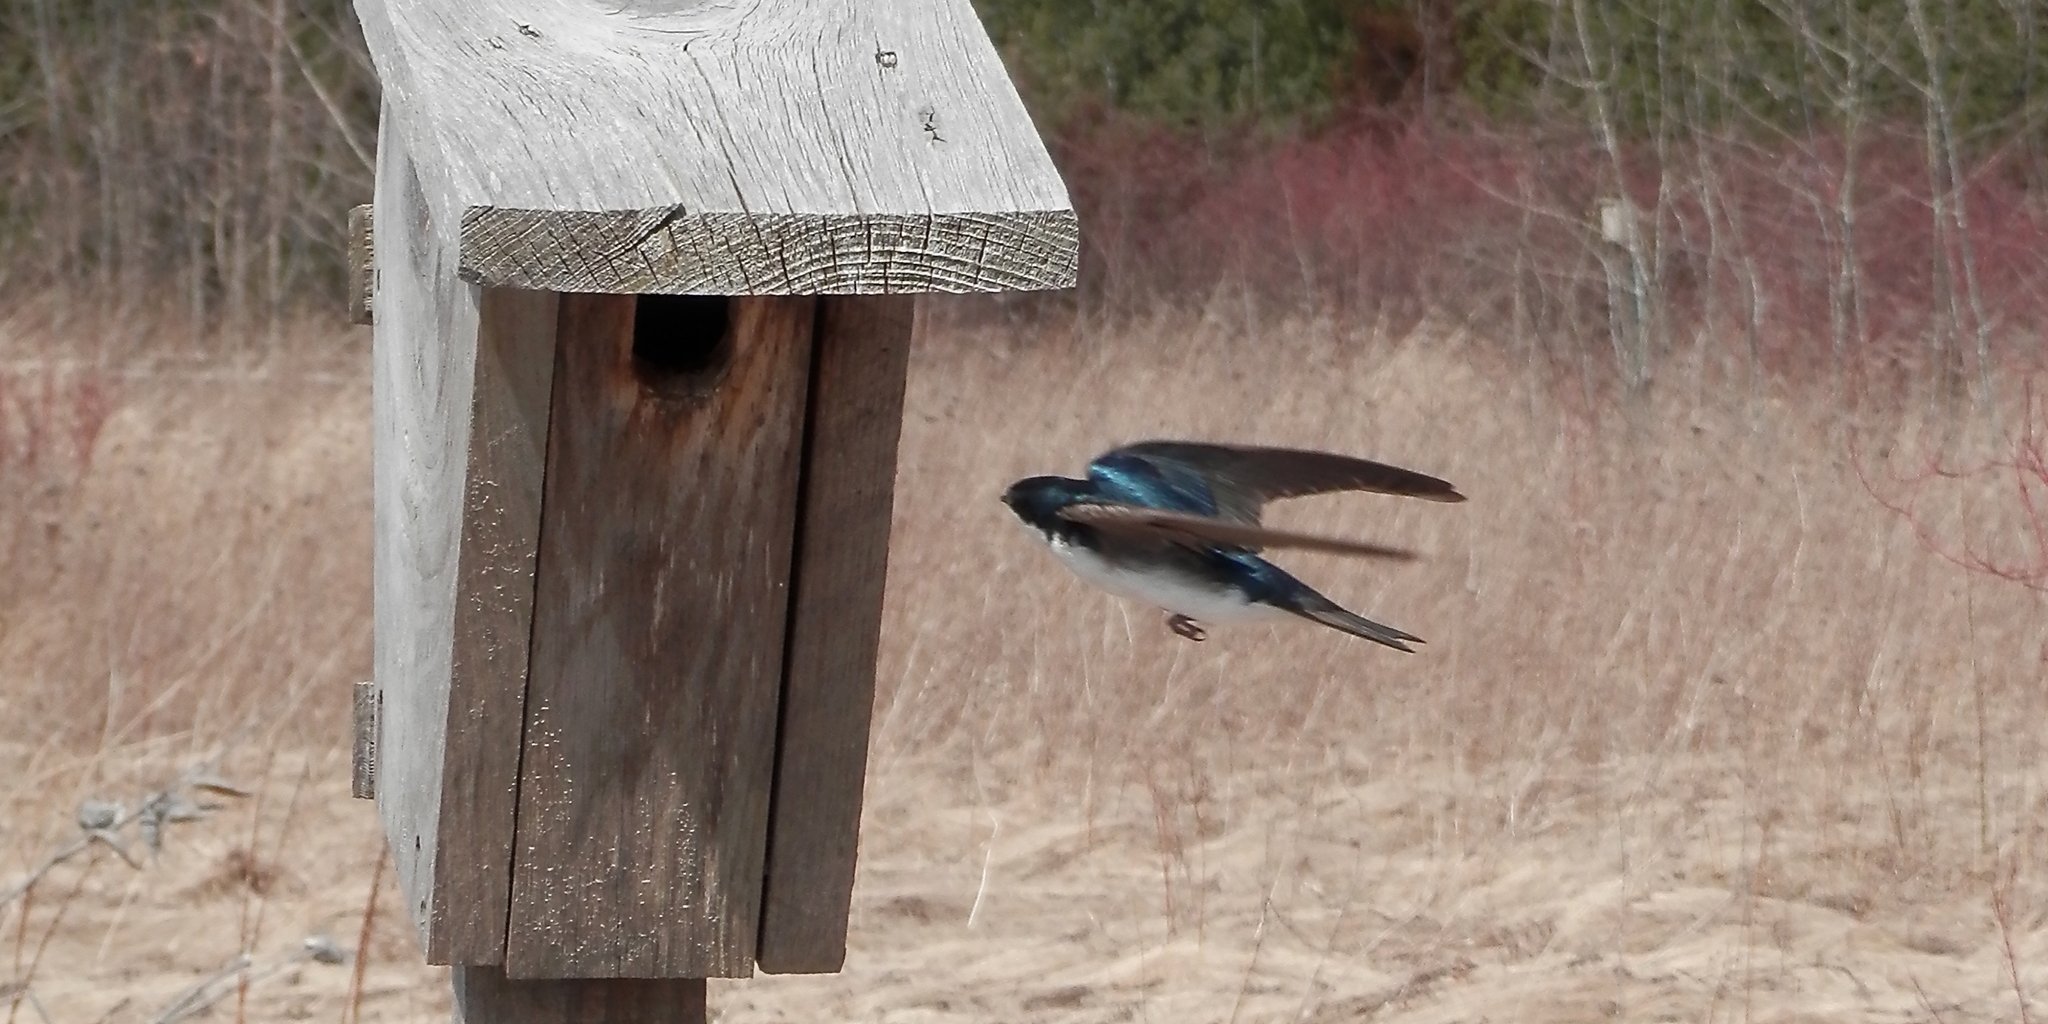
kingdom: Animalia
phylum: Chordata
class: Aves
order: Passeriformes
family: Hirundinidae
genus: Tachycineta
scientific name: Tachycineta bicolor
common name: Tree swallow
